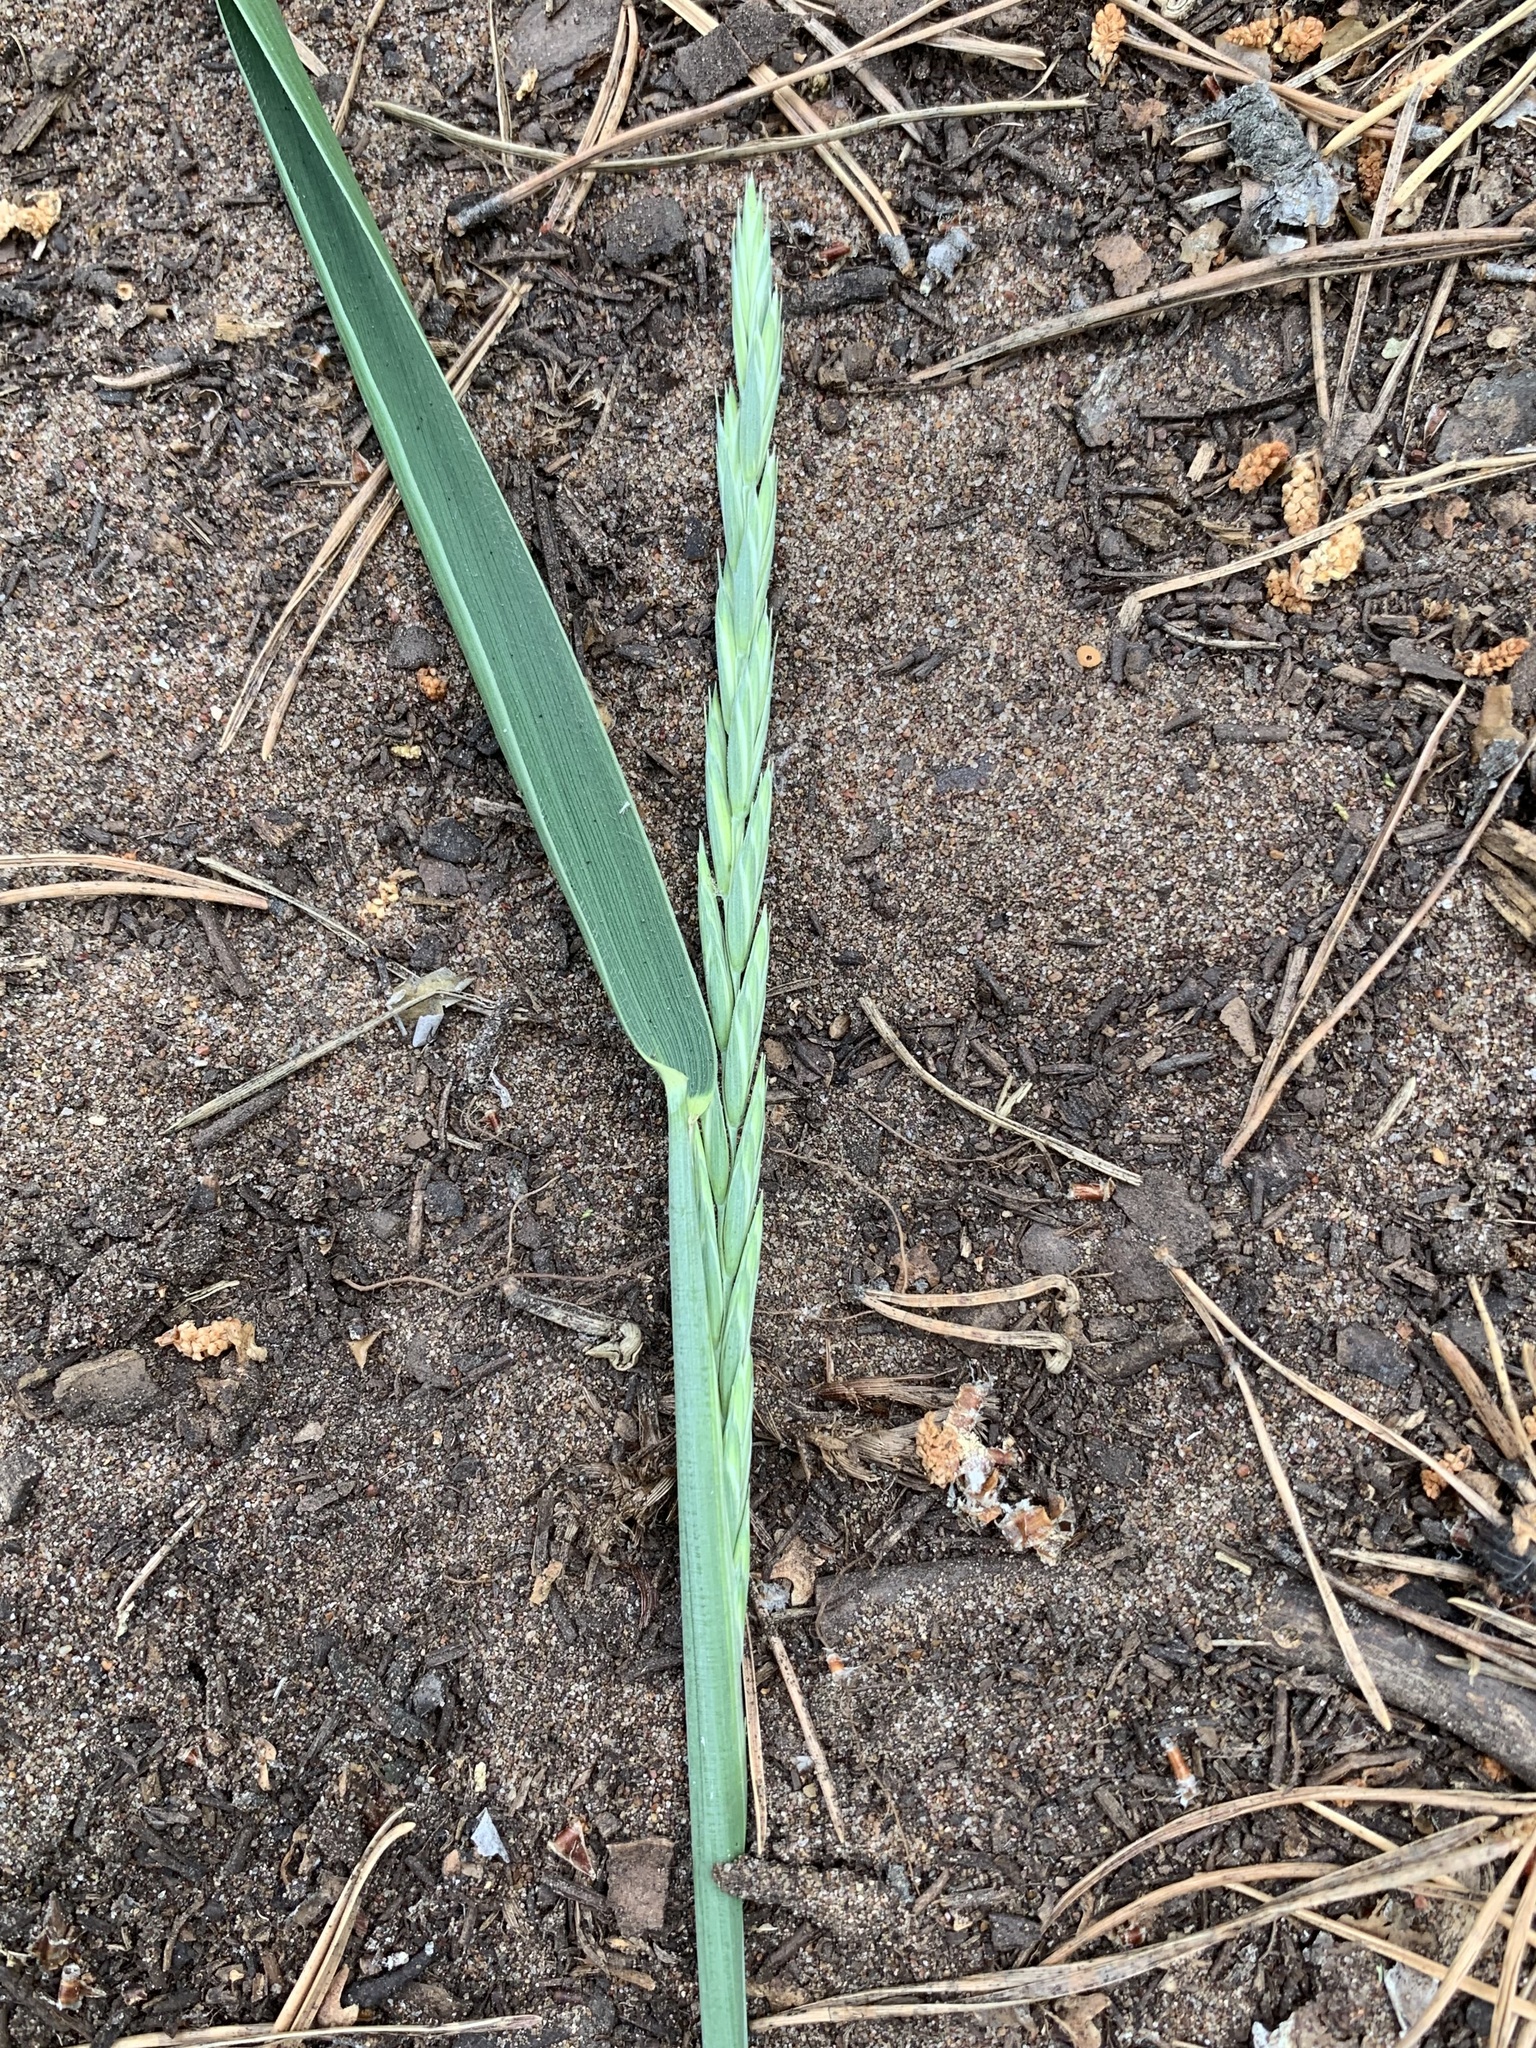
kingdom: Plantae
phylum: Tracheophyta
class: Liliopsida
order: Poales
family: Poaceae
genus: Elymus
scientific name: Elymus repens
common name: Quackgrass
